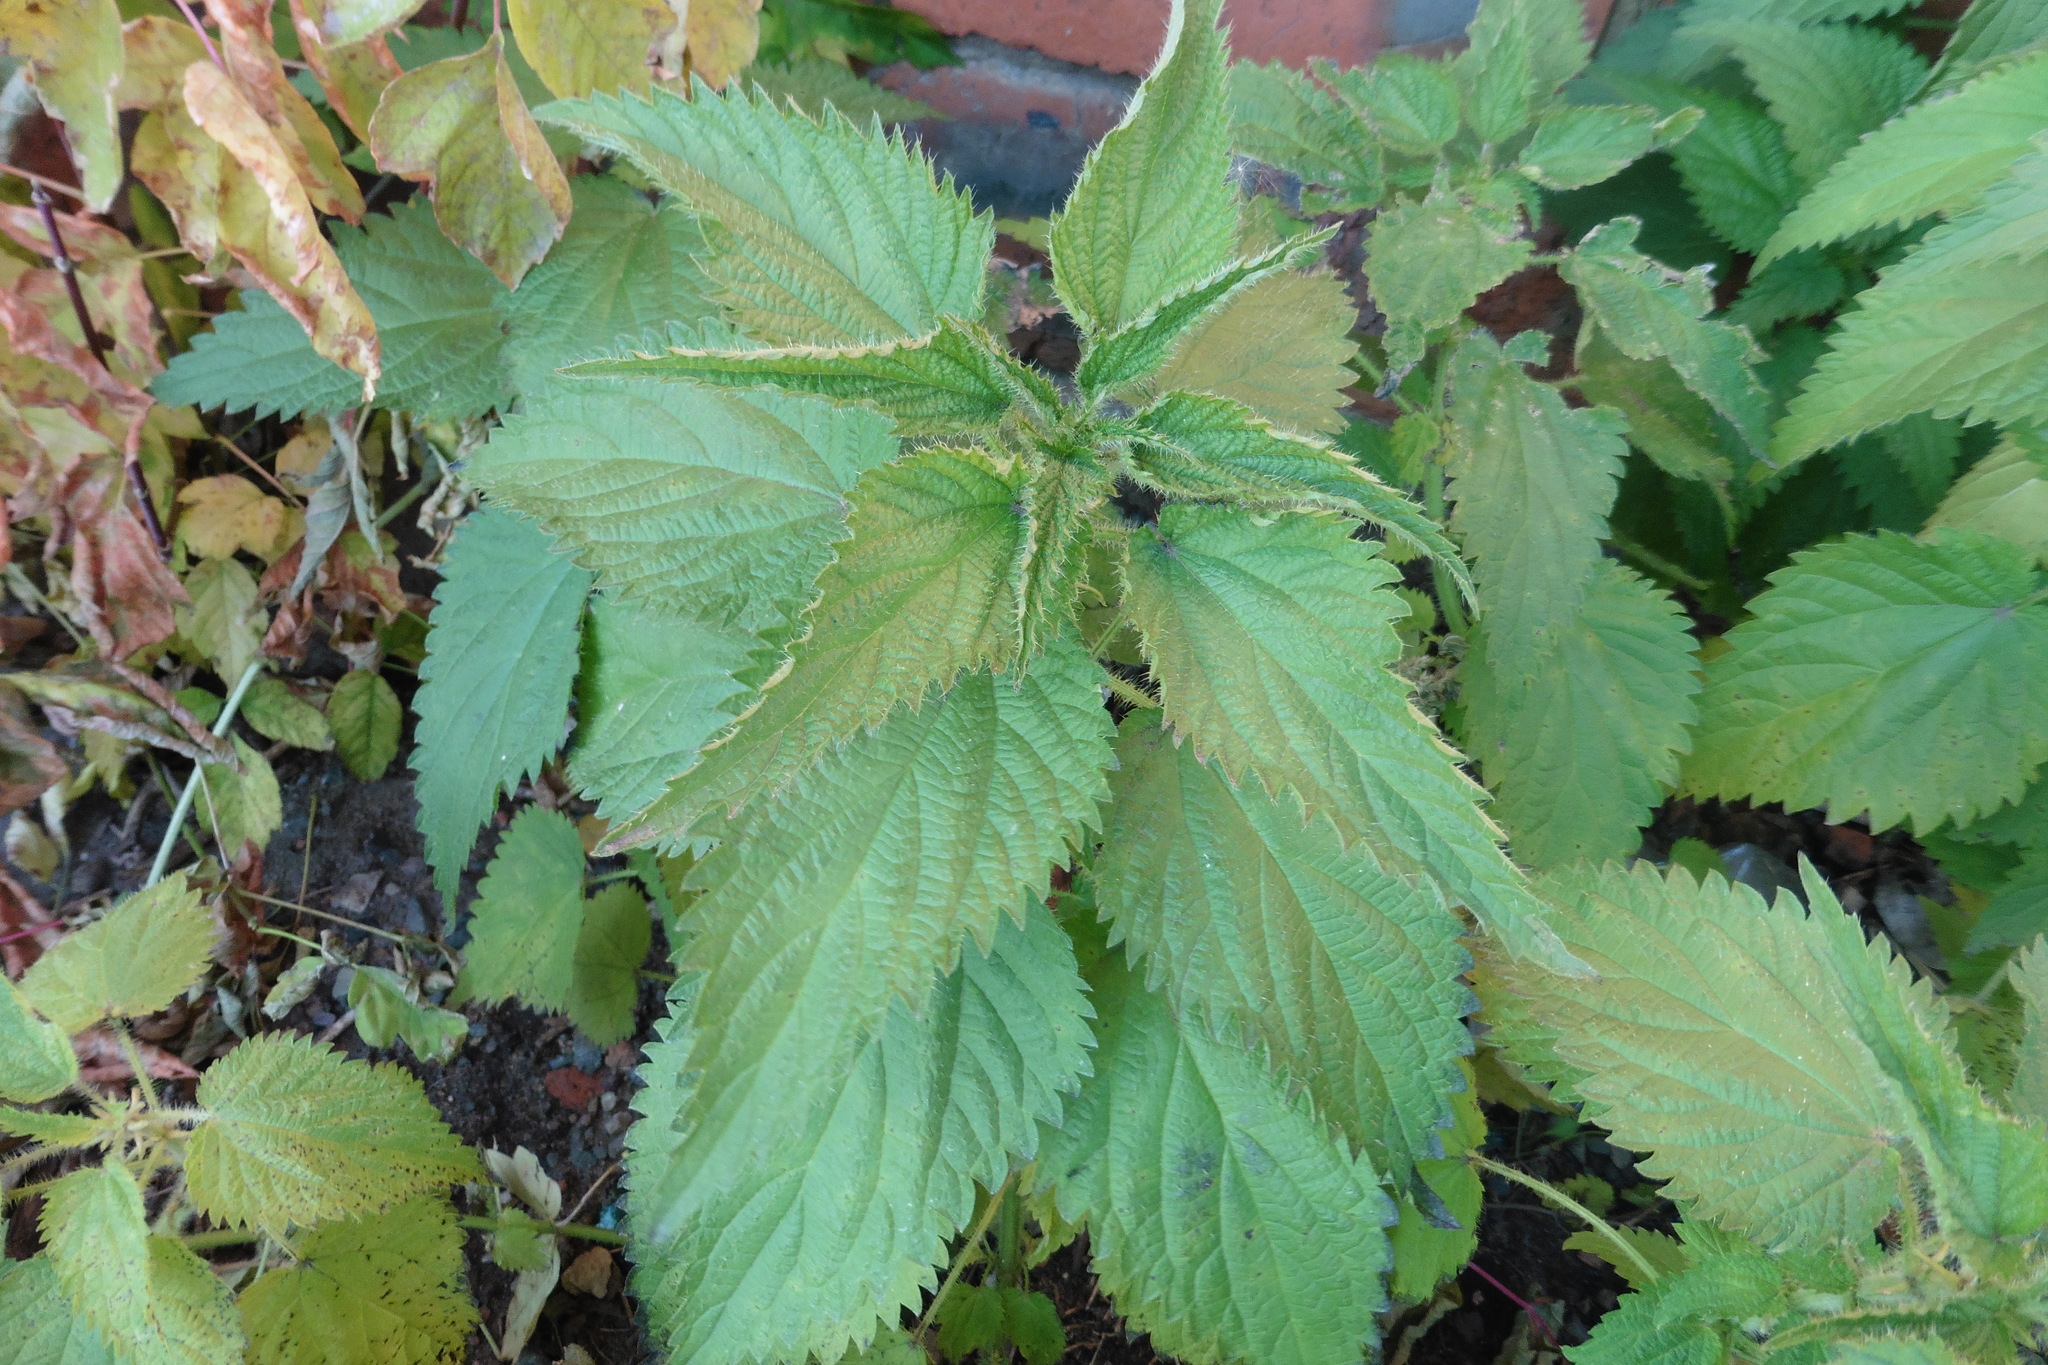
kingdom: Plantae
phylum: Tracheophyta
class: Magnoliopsida
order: Rosales
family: Urticaceae
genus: Urtica
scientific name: Urtica dioica
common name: Common nettle
